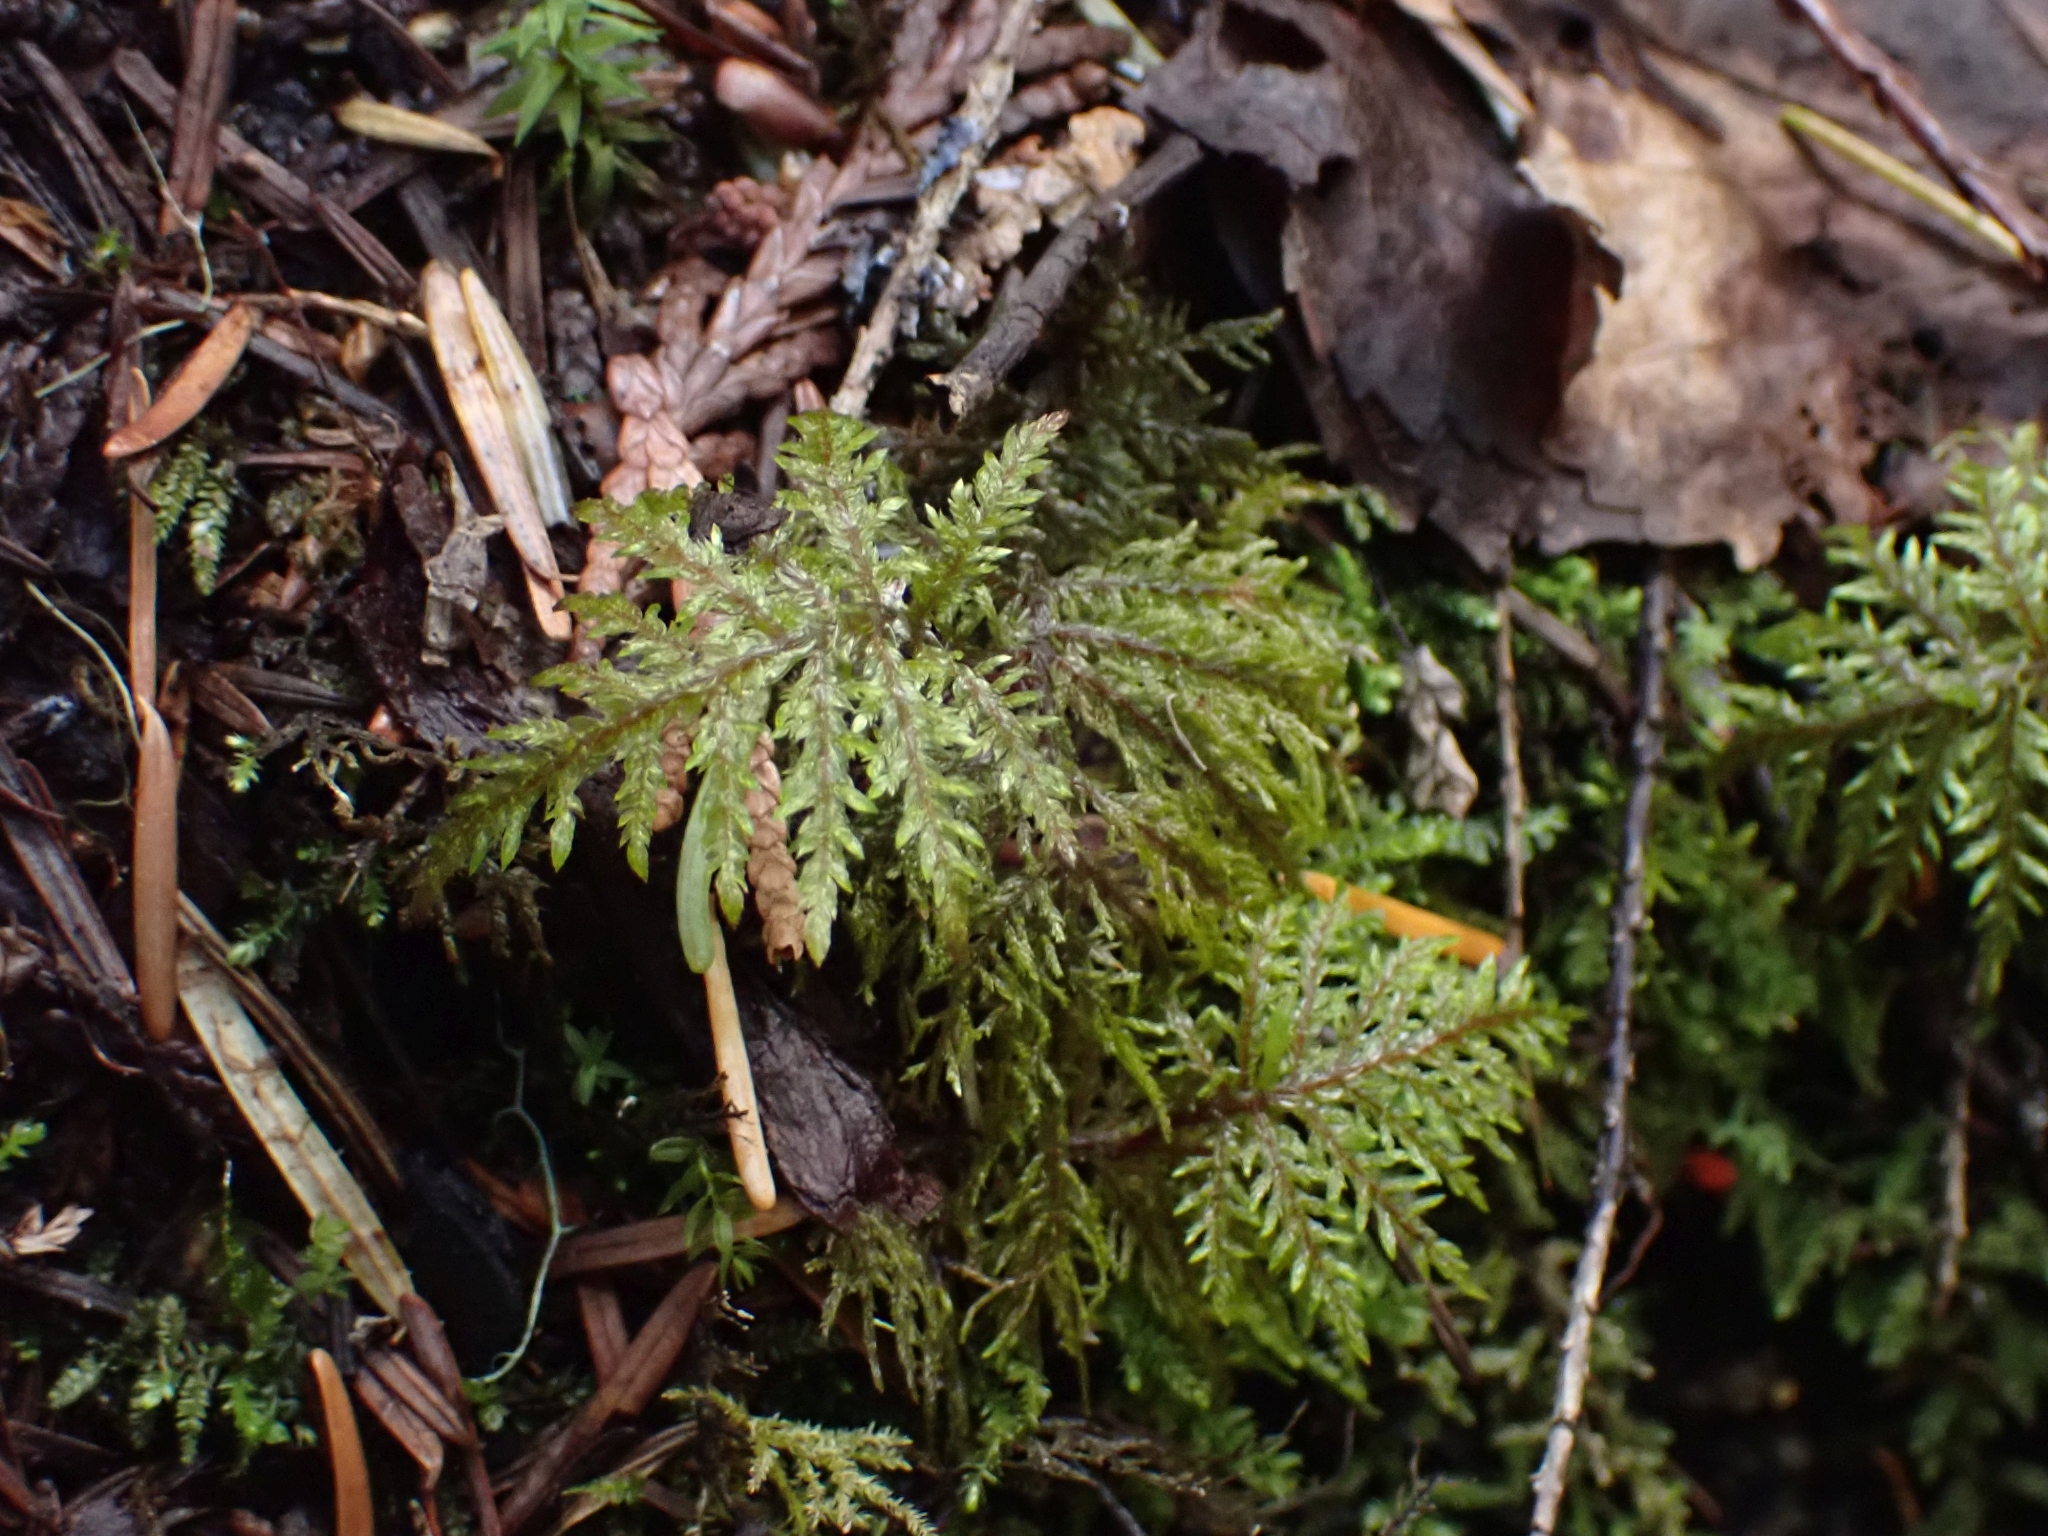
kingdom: Plantae
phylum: Bryophyta
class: Bryopsida
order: Hypnales
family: Hylocomiaceae
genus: Hylocomium
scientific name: Hylocomium splendens
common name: Stairstep moss
